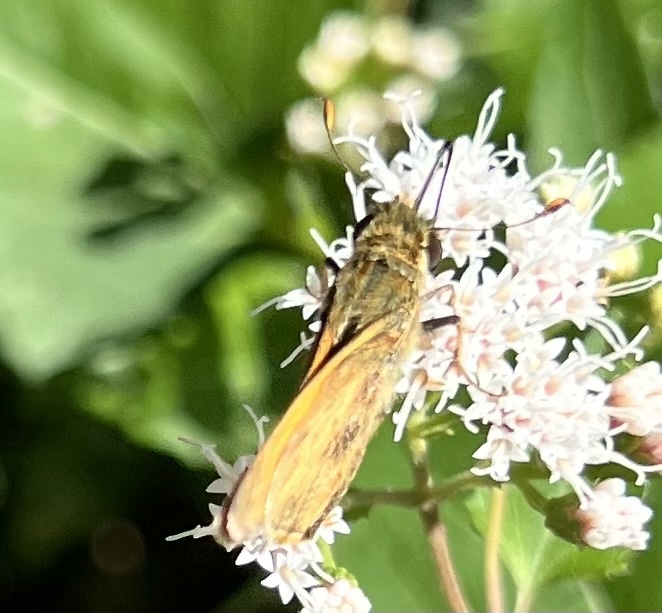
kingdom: Animalia
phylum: Arthropoda
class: Insecta
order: Lepidoptera
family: Hesperiidae
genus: Atalopedes
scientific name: Atalopedes
